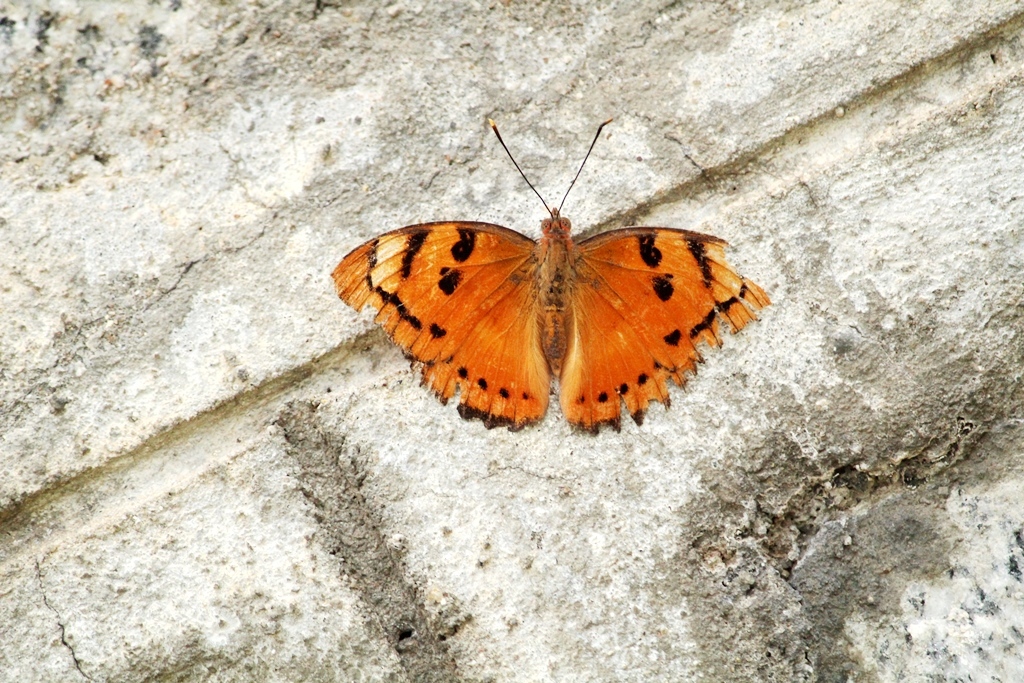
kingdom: Animalia
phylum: Arthropoda
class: Insecta
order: Lepidoptera
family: Nymphalidae
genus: Euthalia
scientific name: Euthalia nais
